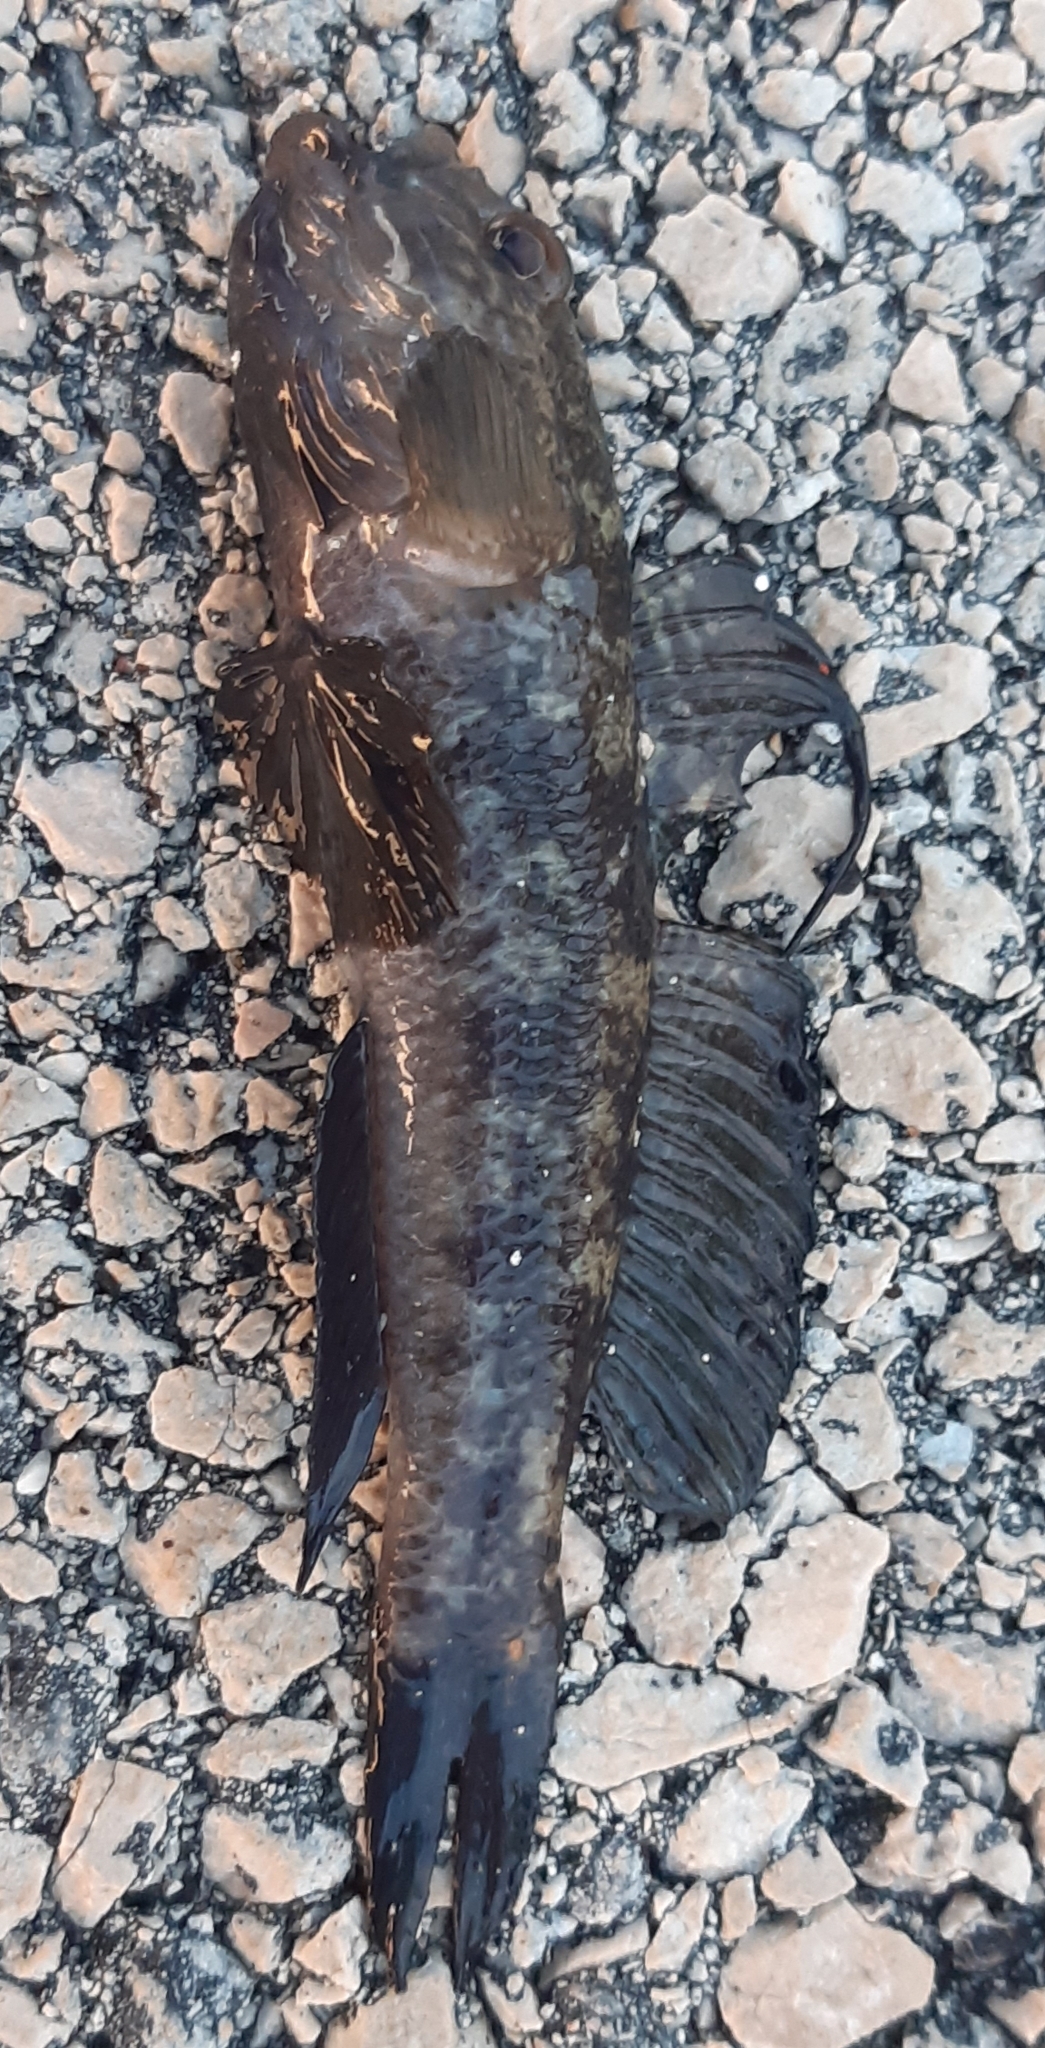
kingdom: Animalia
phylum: Chordata
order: Perciformes
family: Gobiidae
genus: Gobius
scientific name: Gobius niger
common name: Black goby
